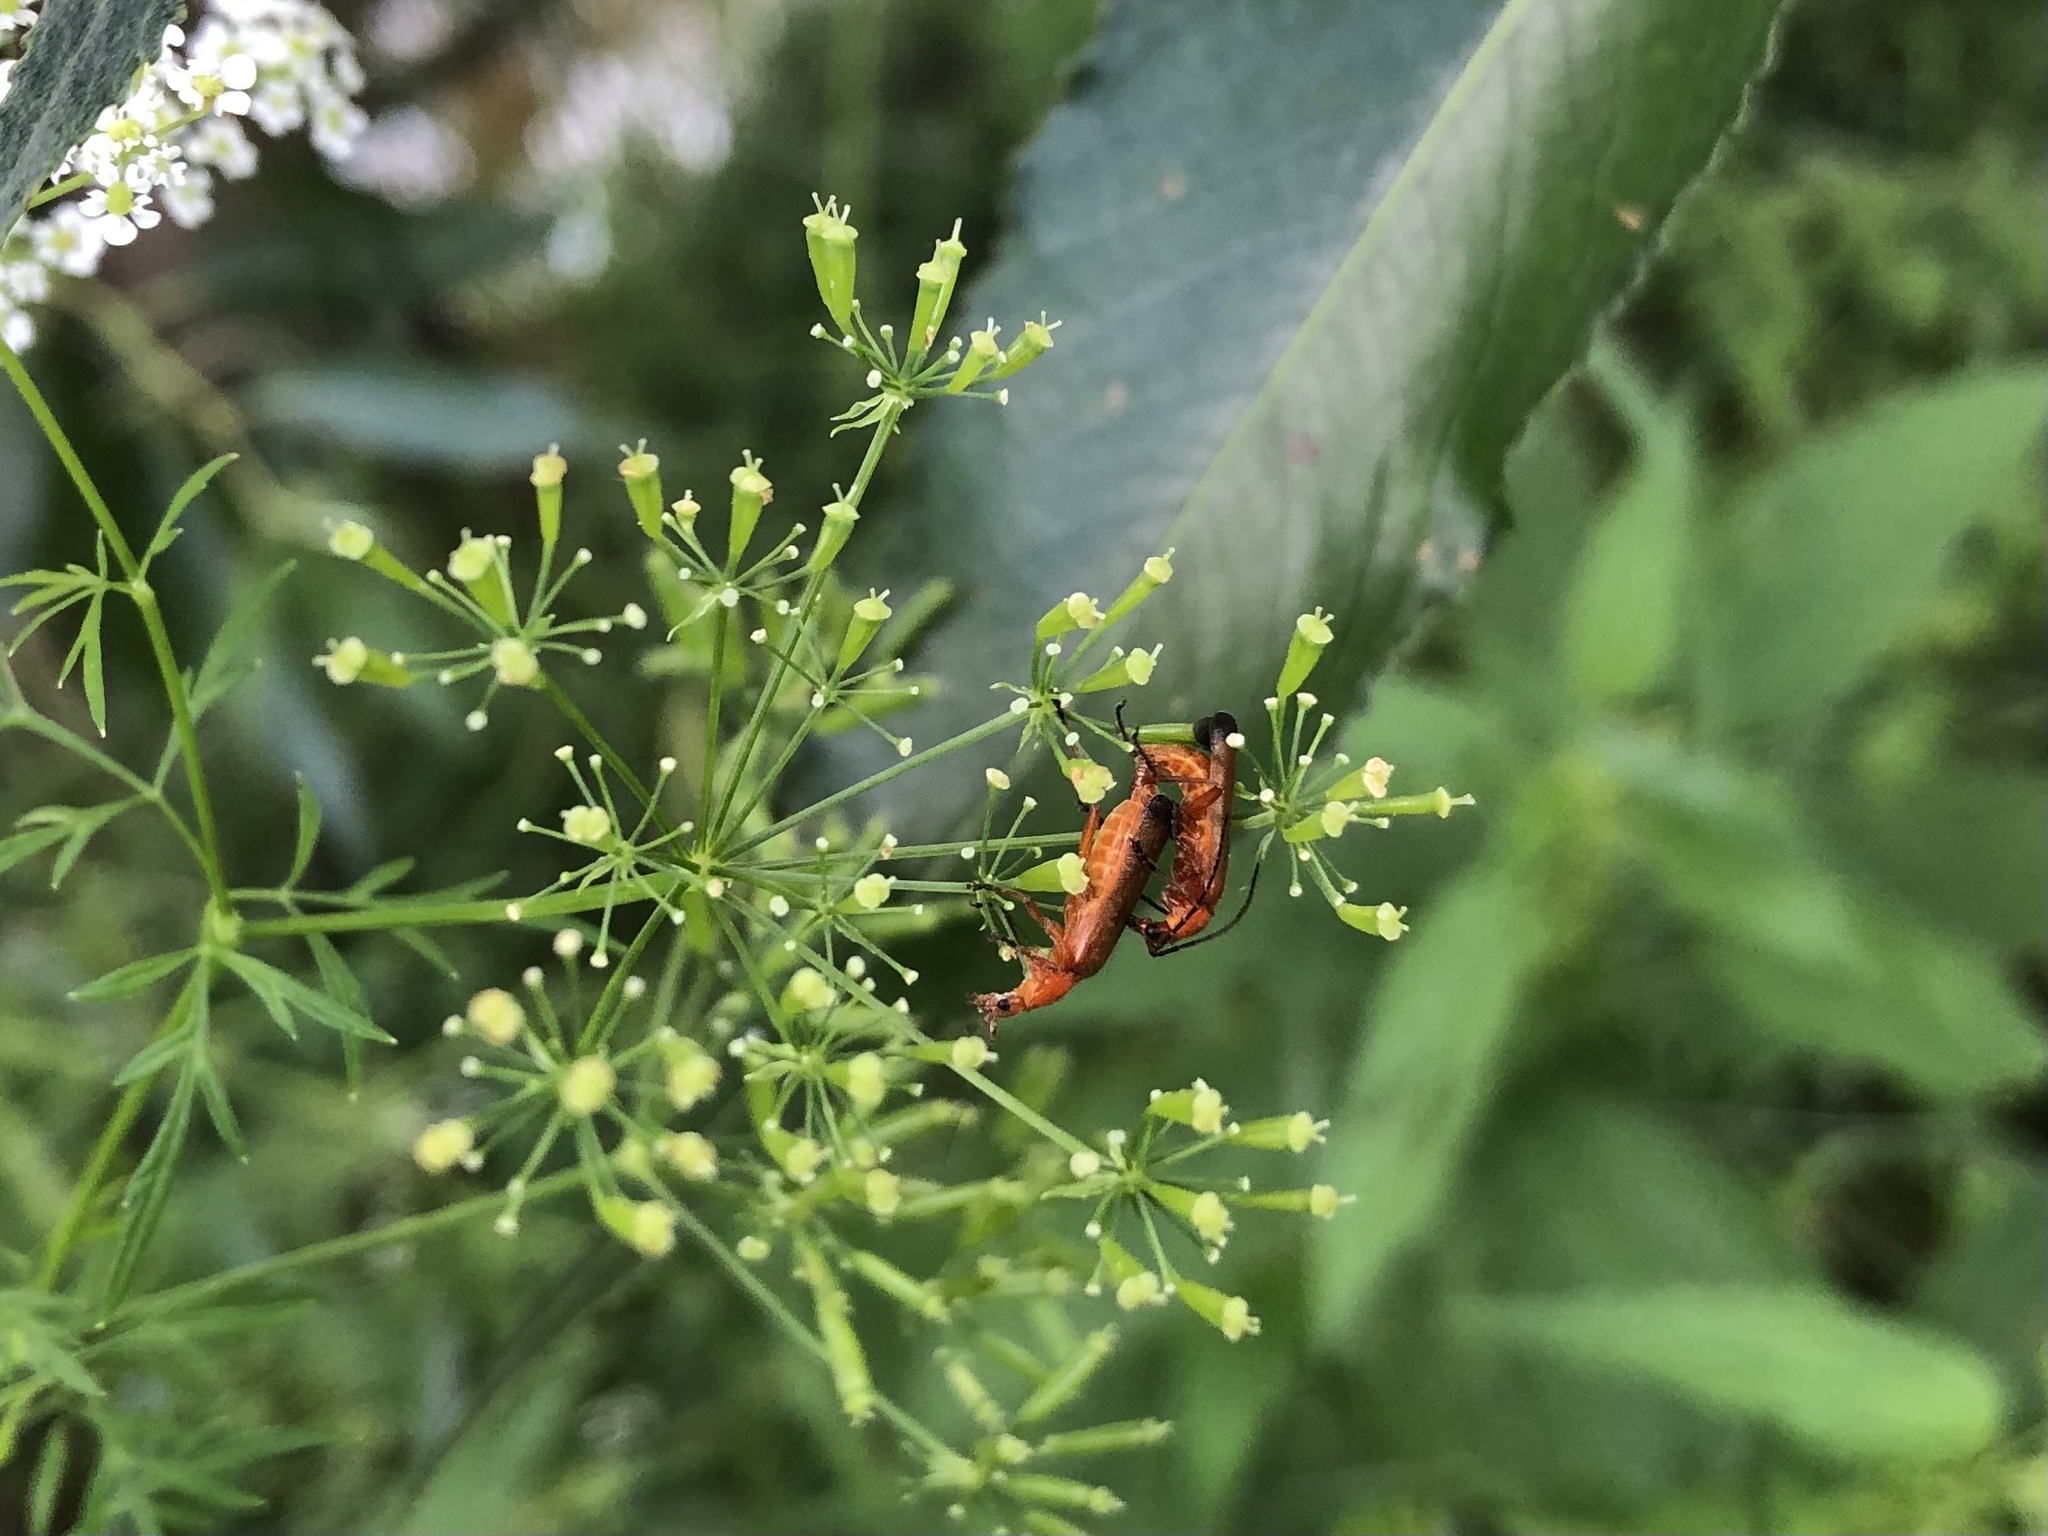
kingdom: Animalia
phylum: Arthropoda
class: Insecta
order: Coleoptera
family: Cantharidae
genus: Rhagonycha
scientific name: Rhagonycha fulva
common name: Common red soldier beetle
